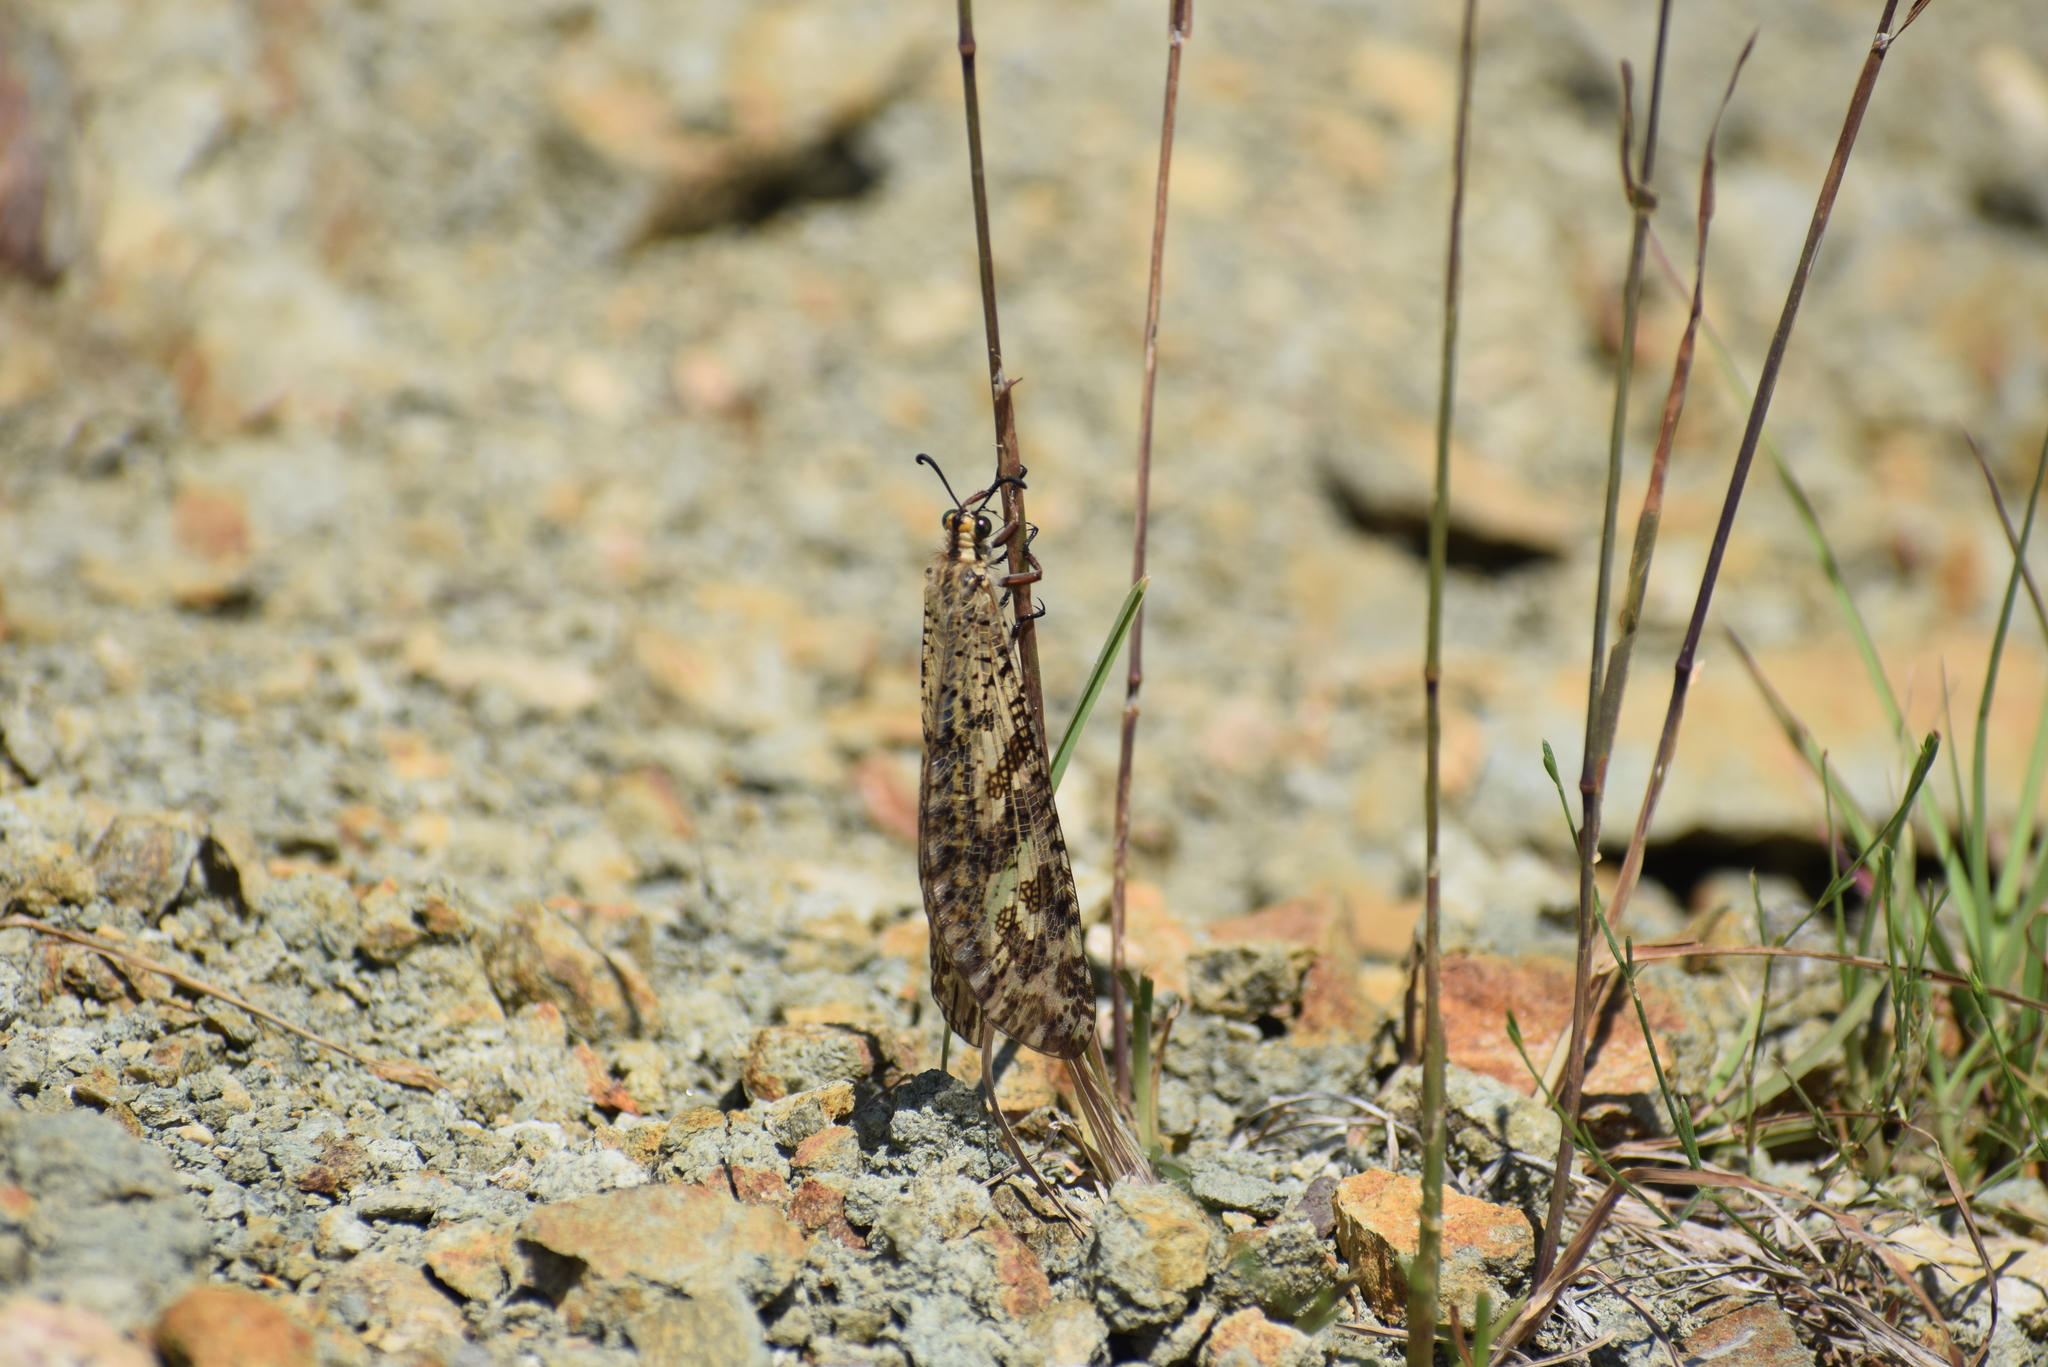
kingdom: Animalia
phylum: Arthropoda
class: Insecta
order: Neuroptera
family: Myrmeleontidae
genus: Palpares
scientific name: Palpares libelluloides
